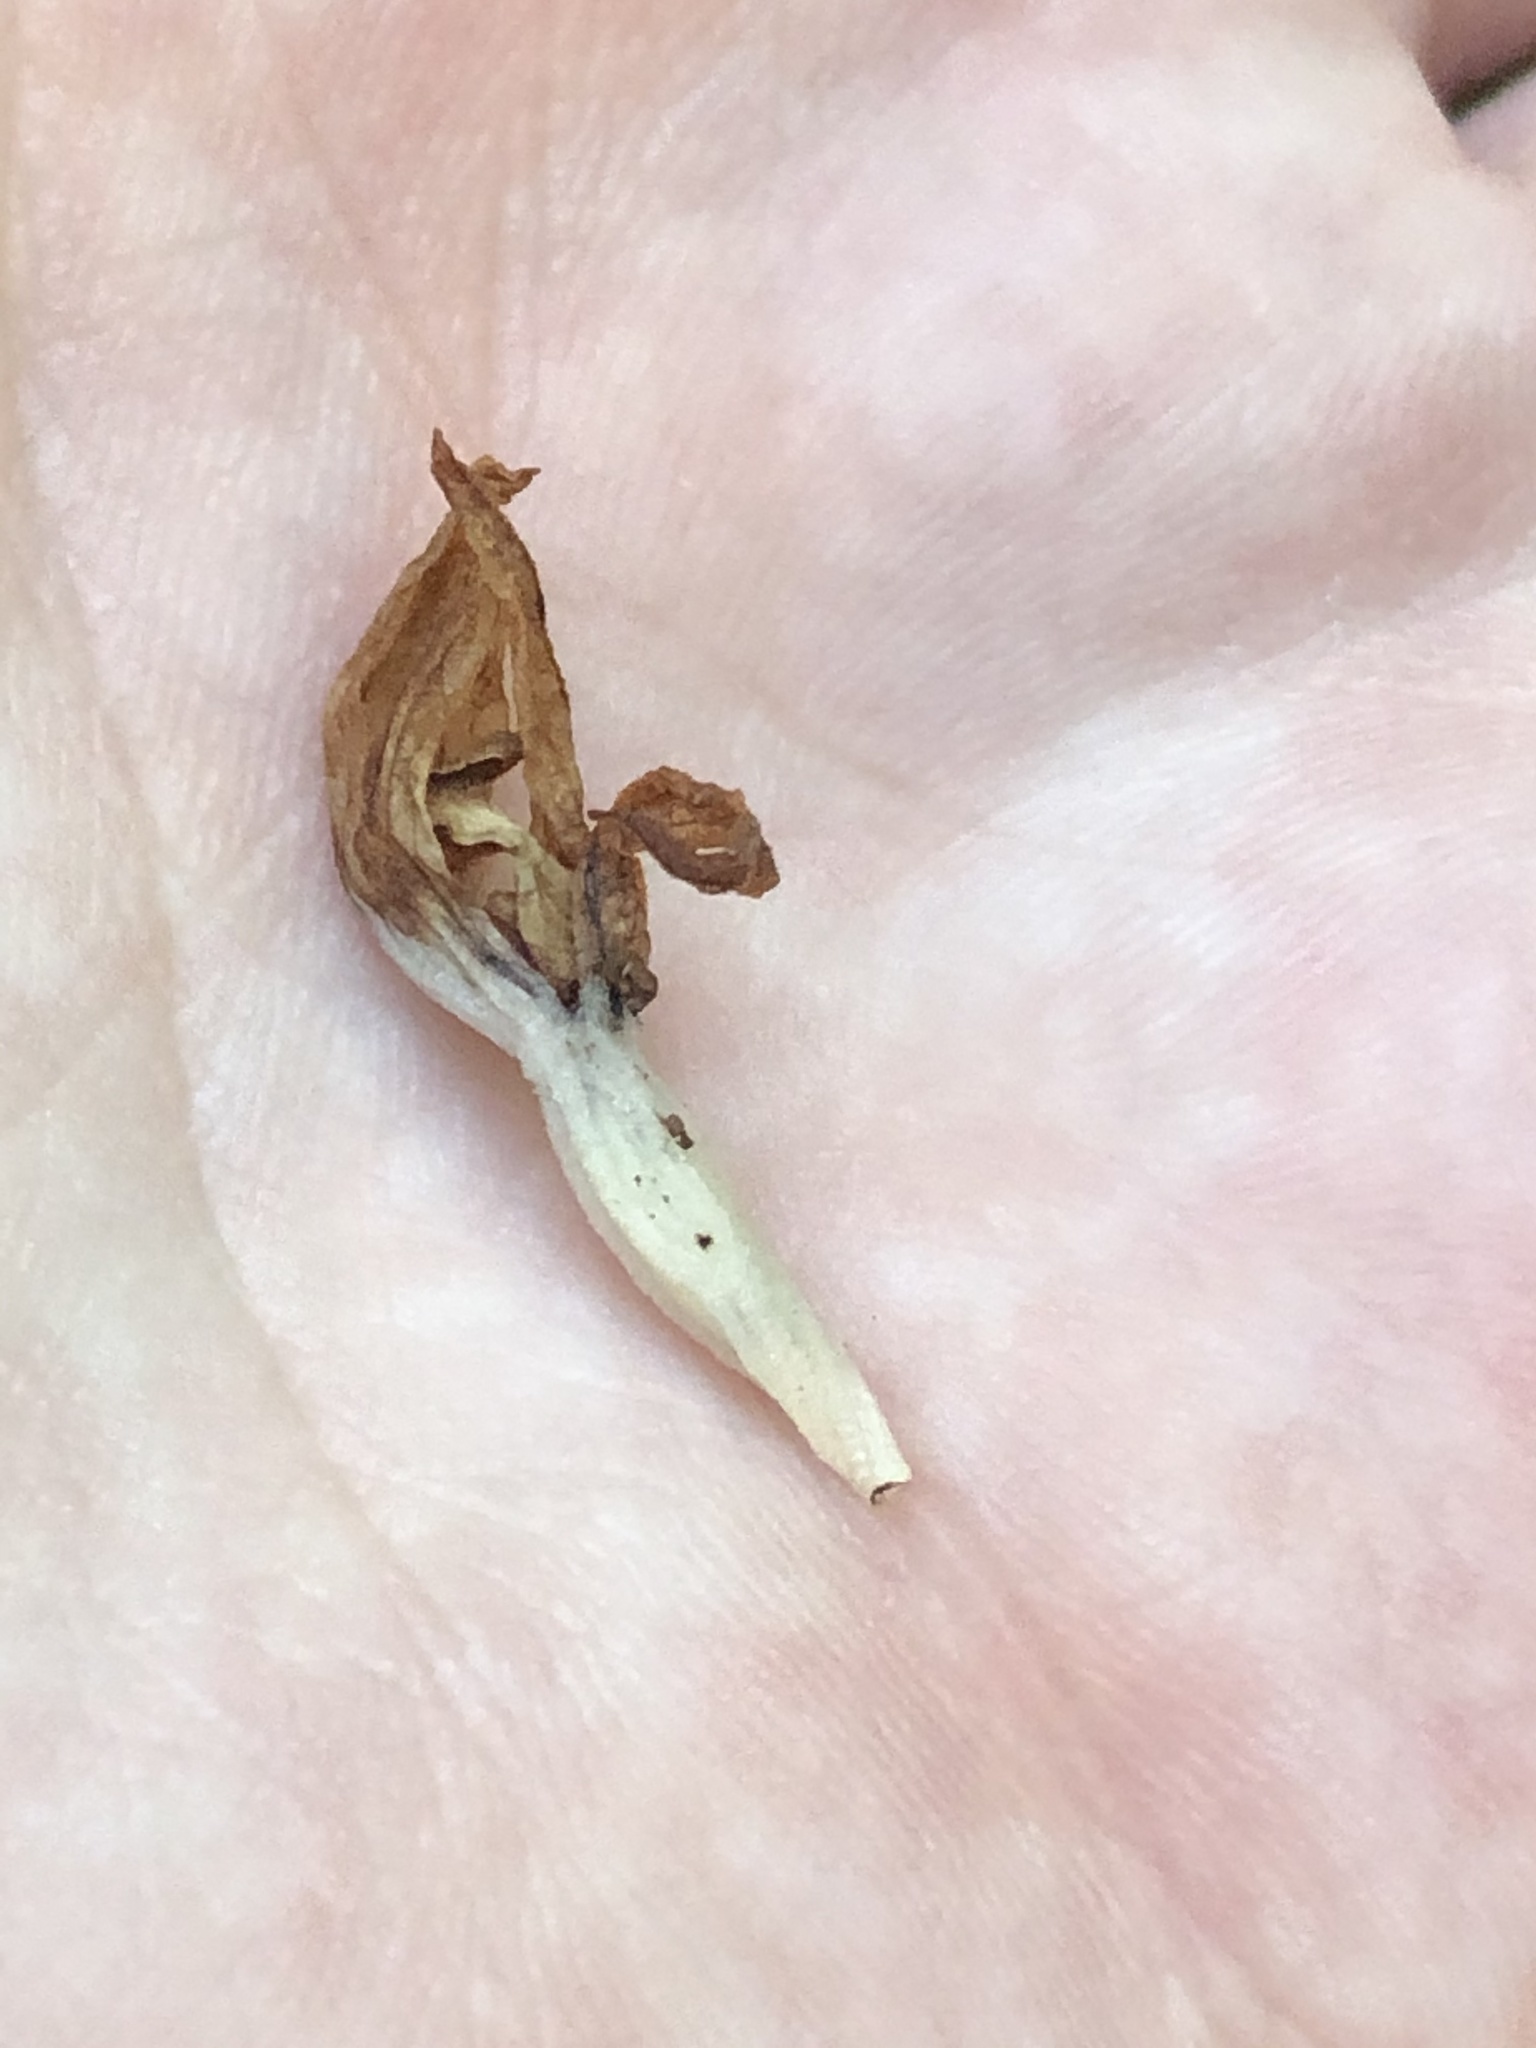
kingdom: Plantae
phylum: Tracheophyta
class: Liliopsida
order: Asparagales
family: Orchidaceae
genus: Cephalanthera
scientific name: Cephalanthera austiniae
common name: Phantom orchid
